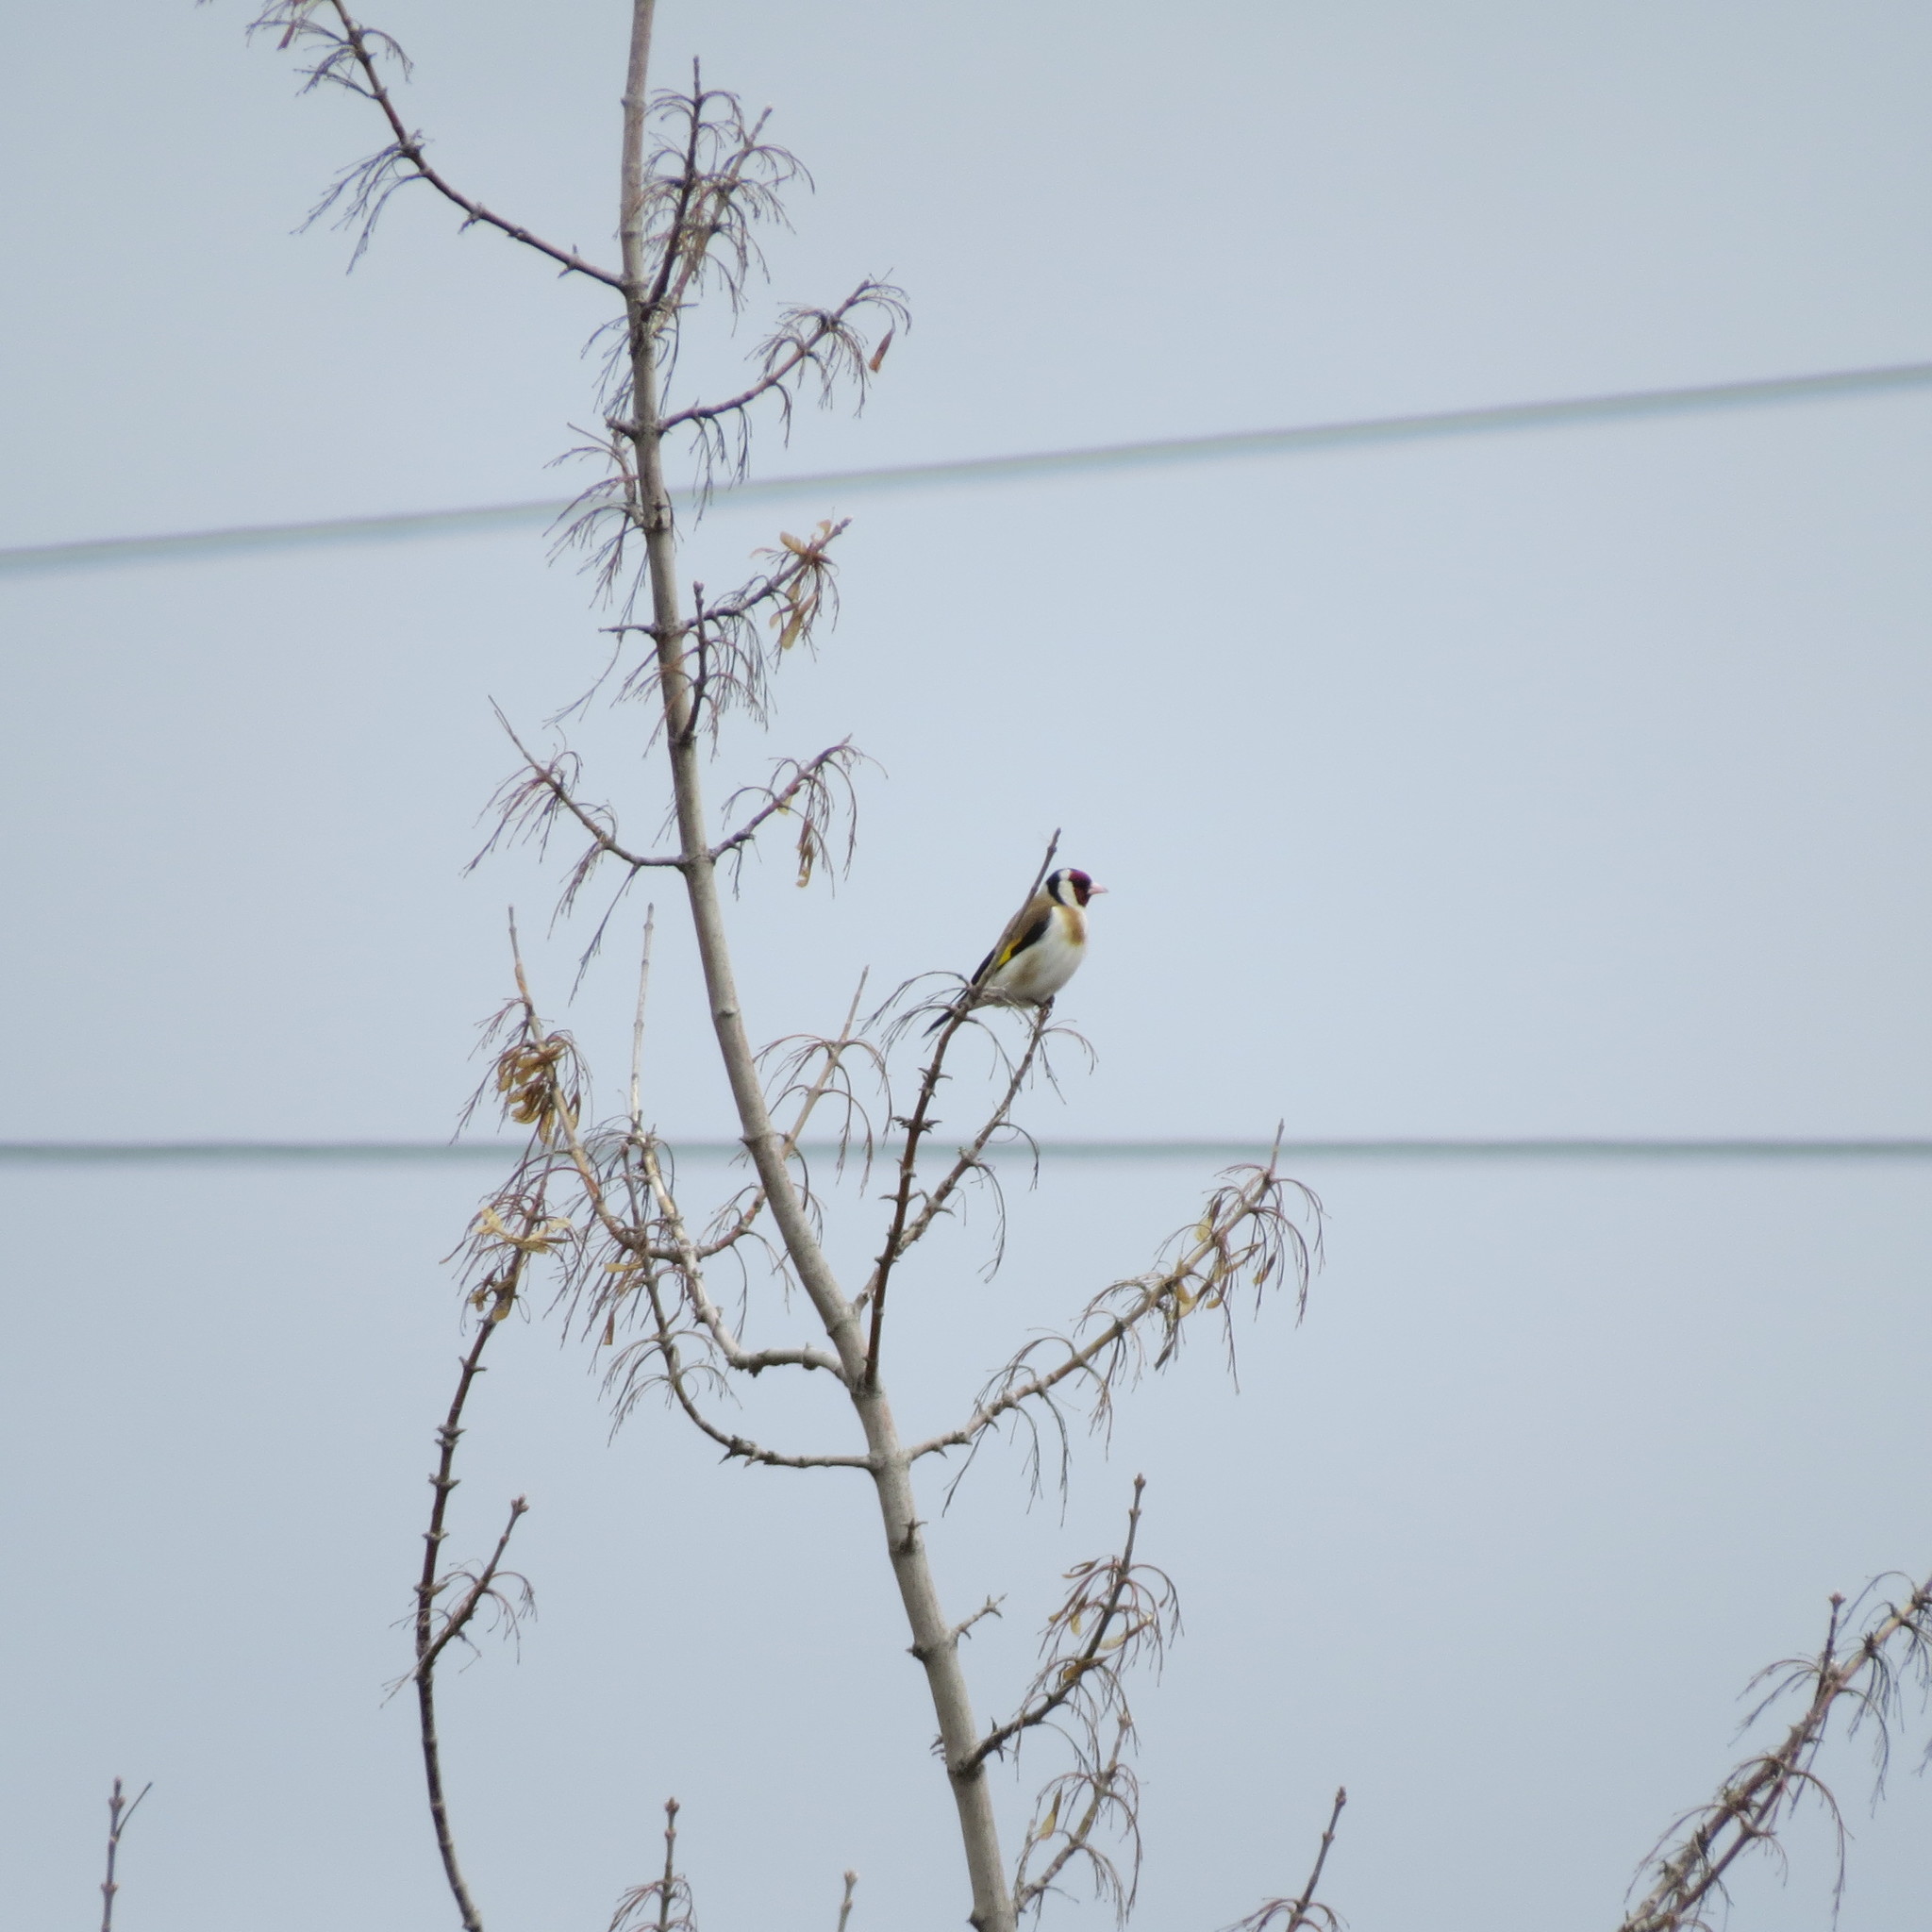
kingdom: Animalia
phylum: Chordata
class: Aves
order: Passeriformes
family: Fringillidae
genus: Carduelis
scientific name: Carduelis carduelis
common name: European goldfinch
